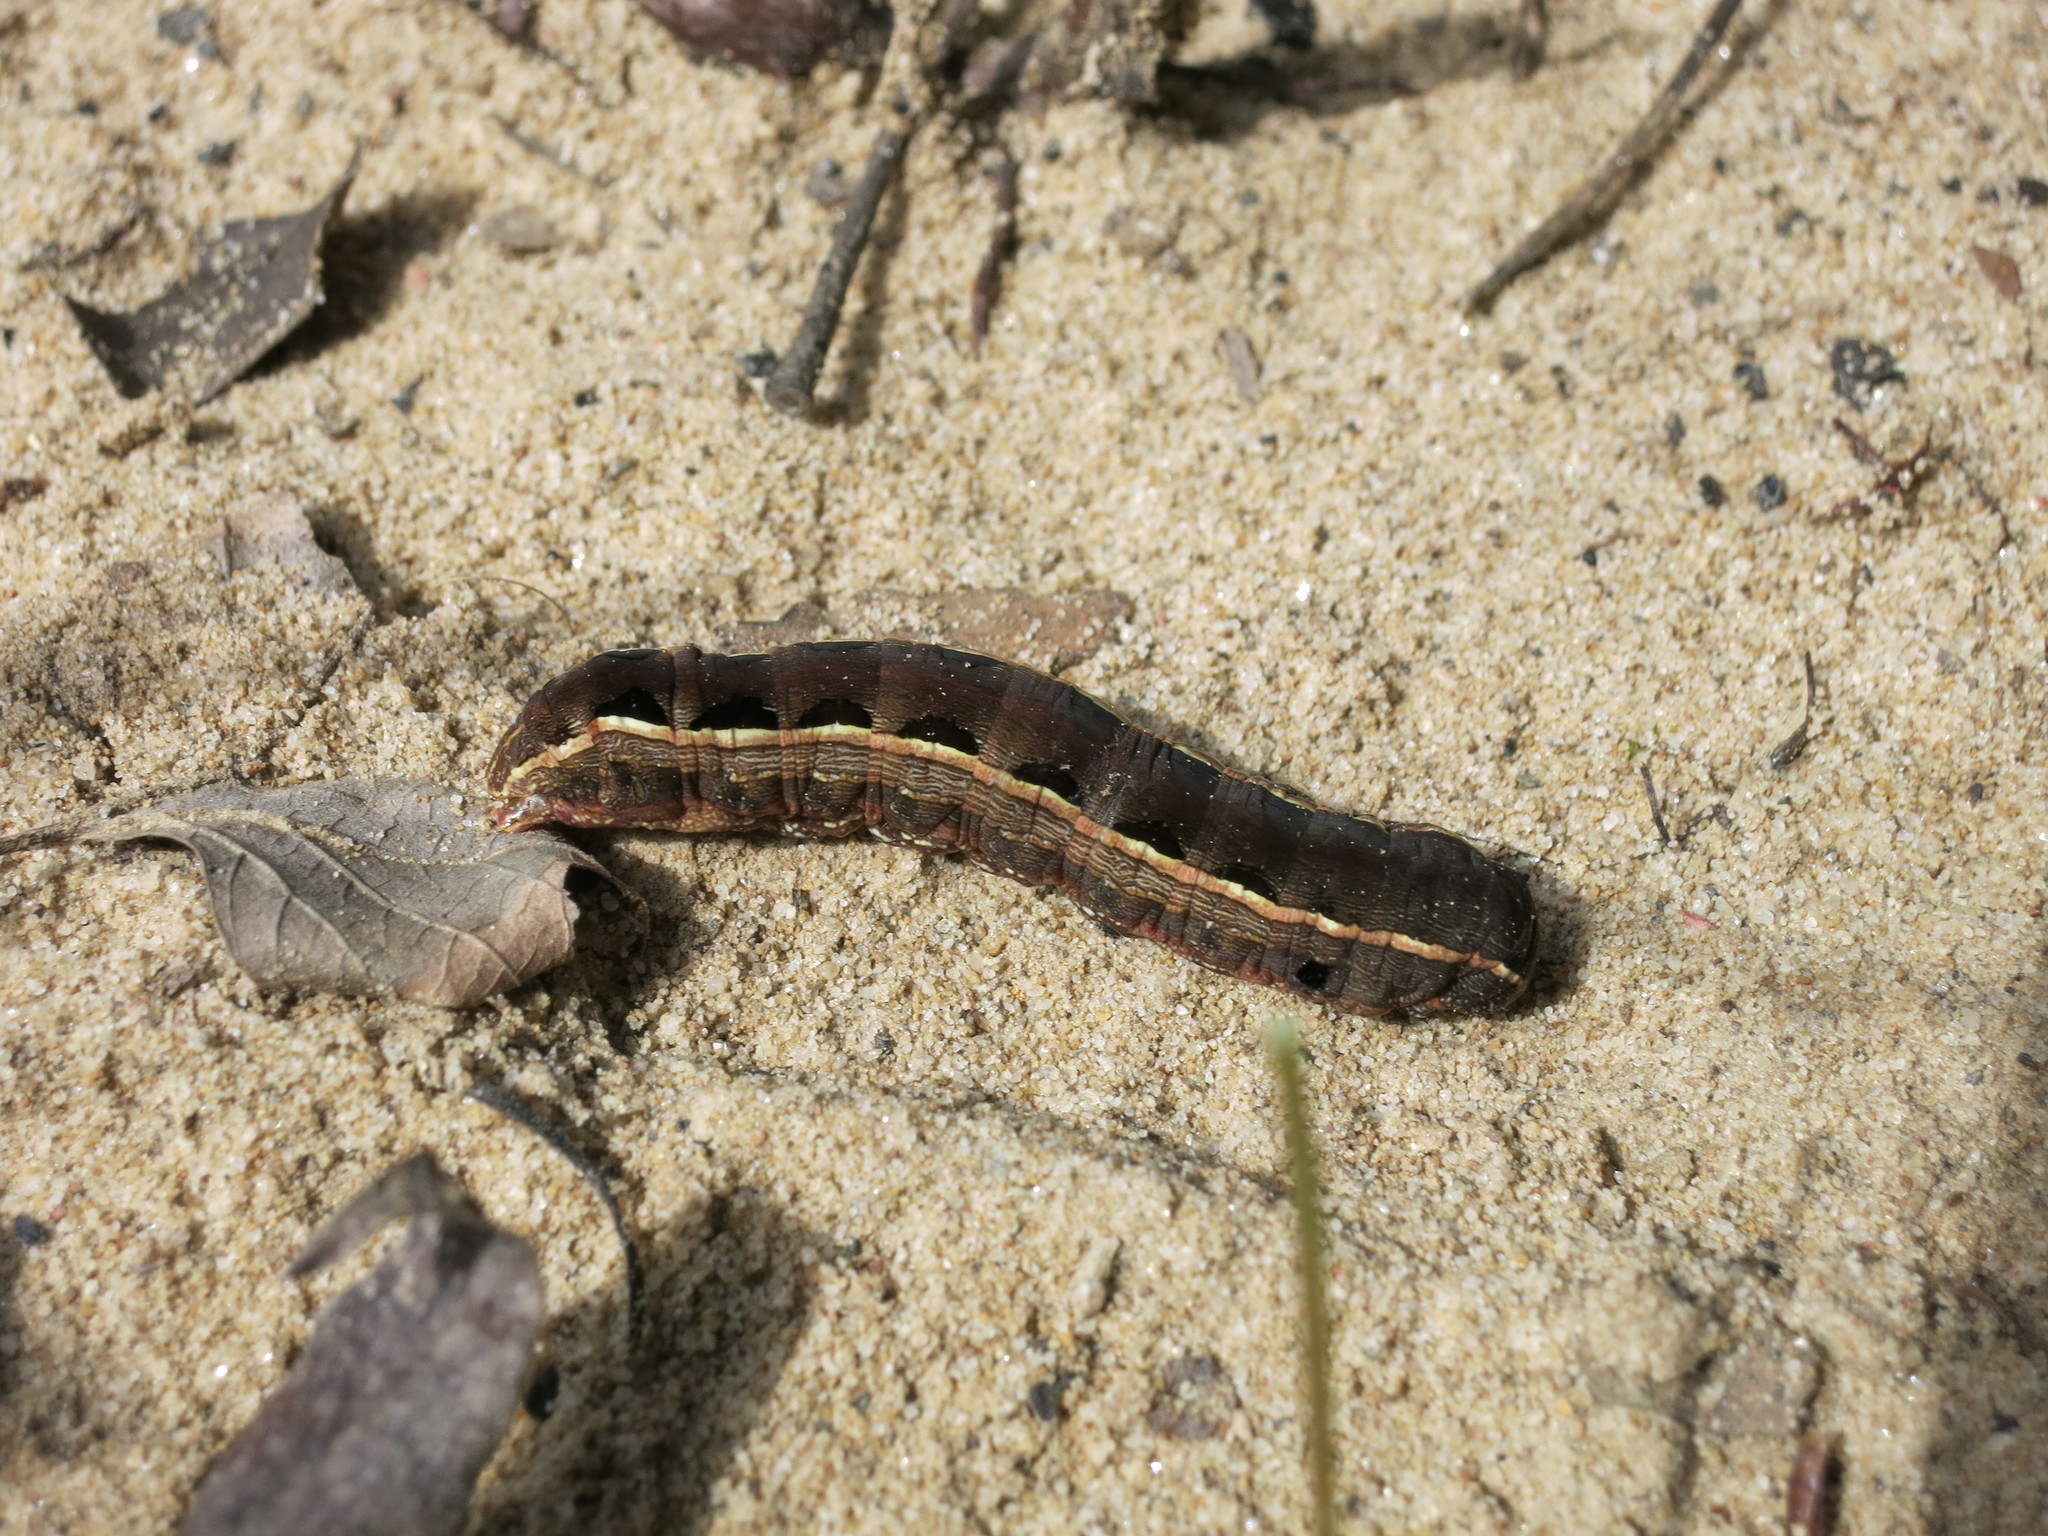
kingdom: Animalia
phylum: Arthropoda
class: Insecta
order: Lepidoptera
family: Noctuidae
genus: Spodoptera
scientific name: Spodoptera ornithogalli
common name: Yellow-striped armyworm
